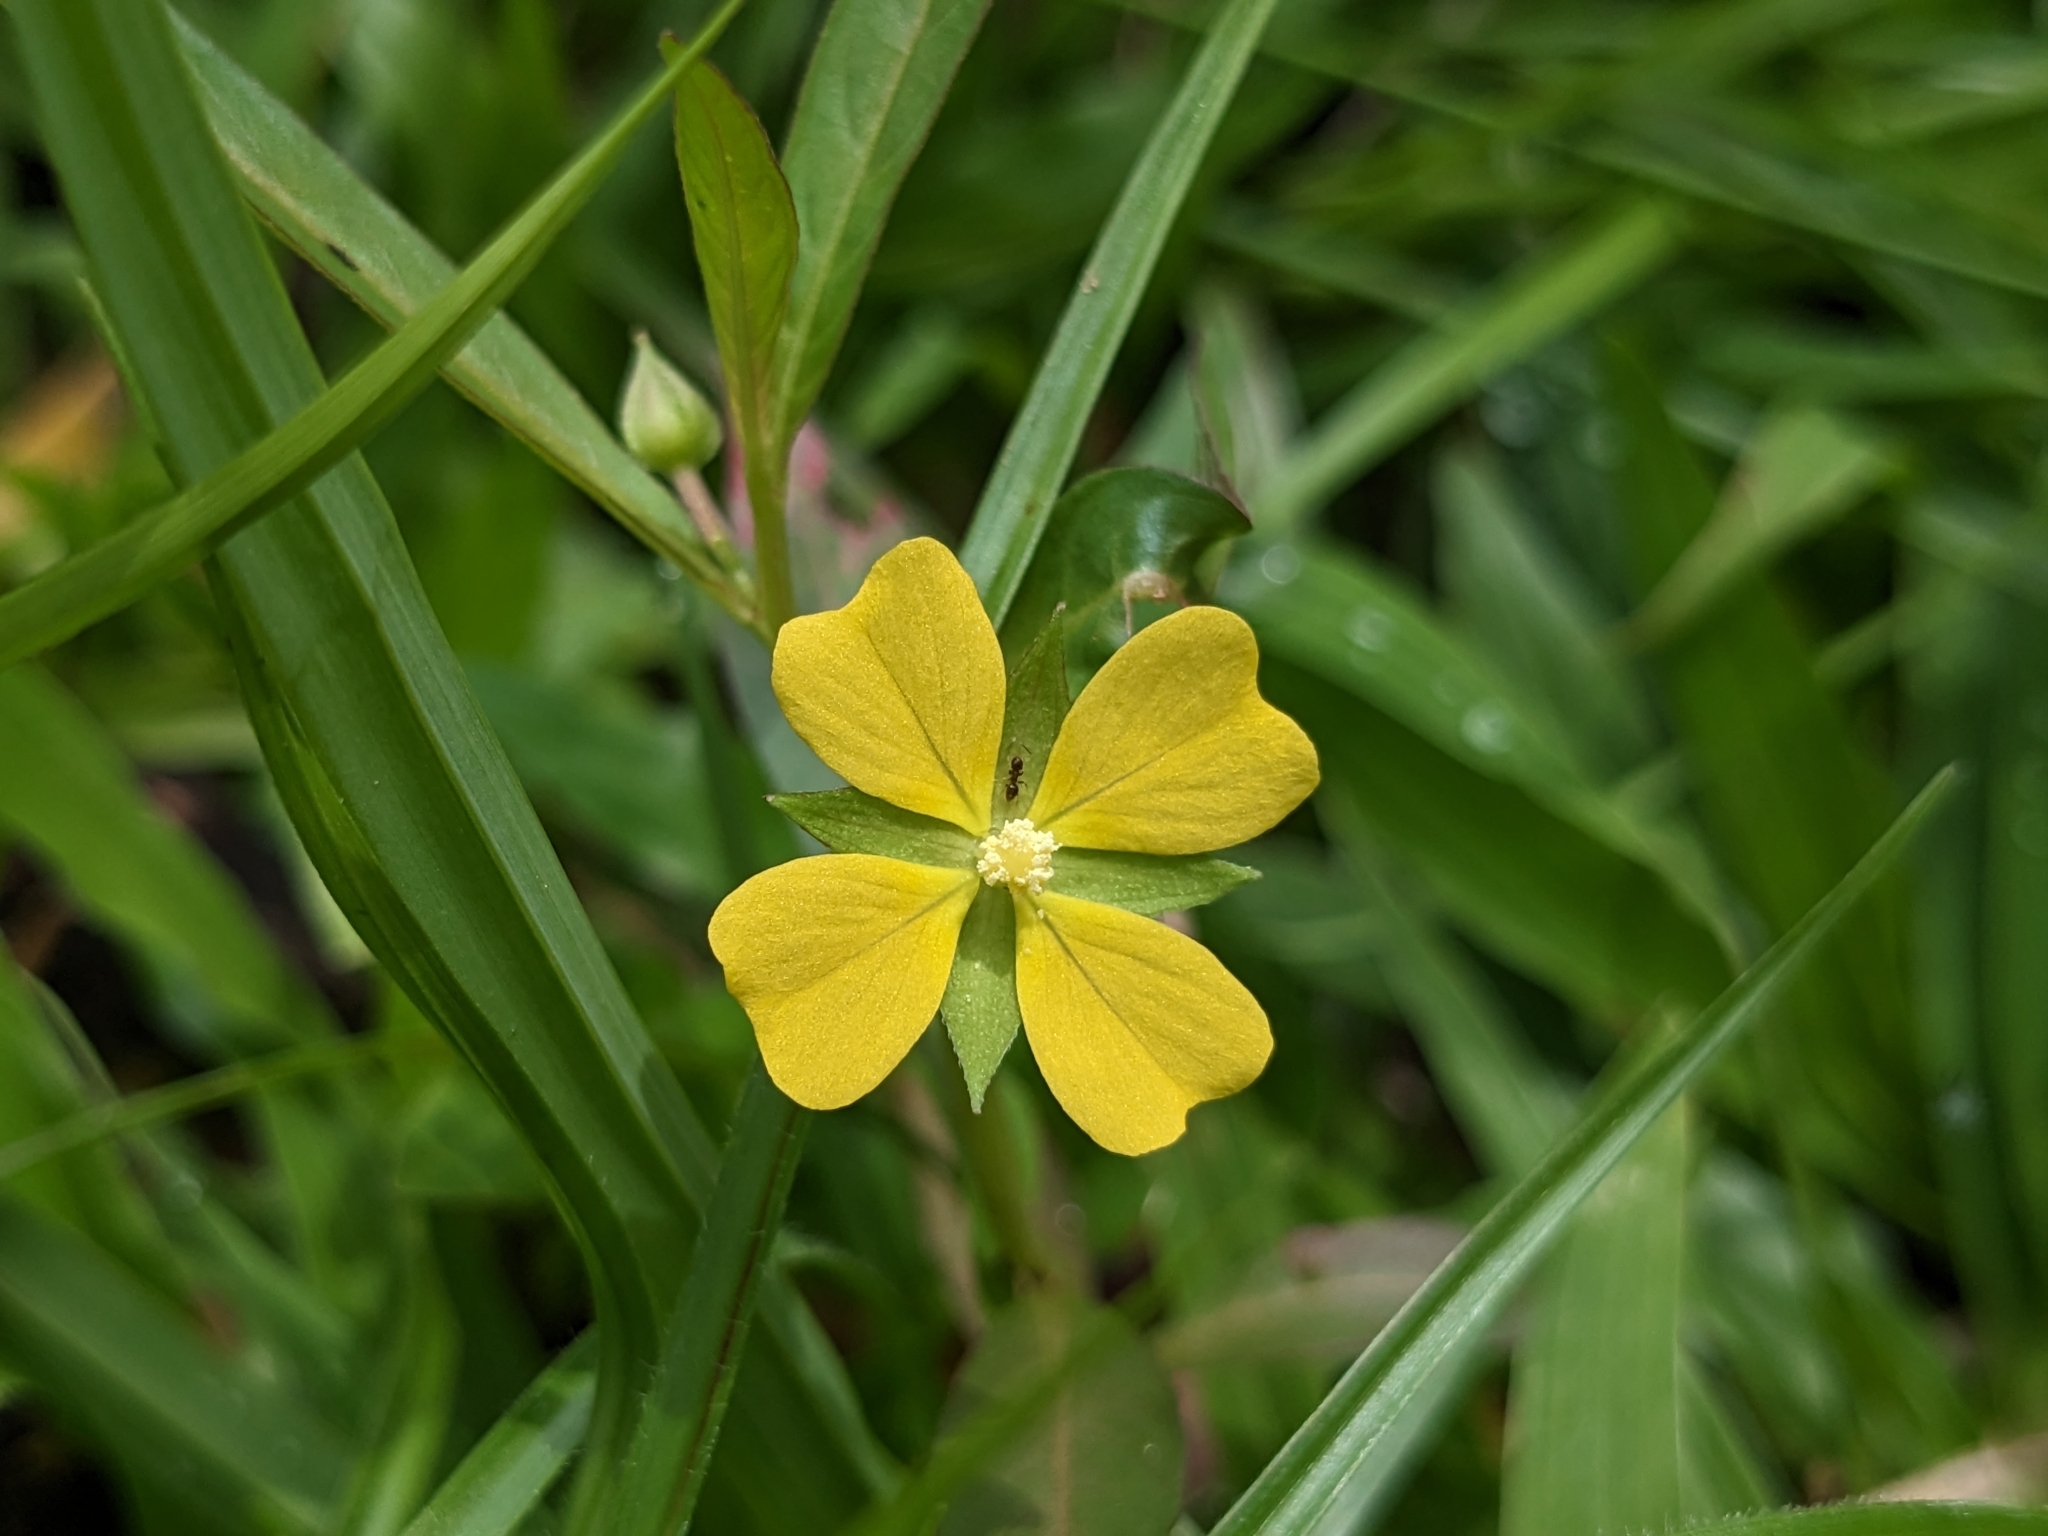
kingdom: Plantae
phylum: Tracheophyta
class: Magnoliopsida
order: Myrtales
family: Onagraceae
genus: Ludwigia
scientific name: Ludwigia octovalvis
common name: Water-primrose
